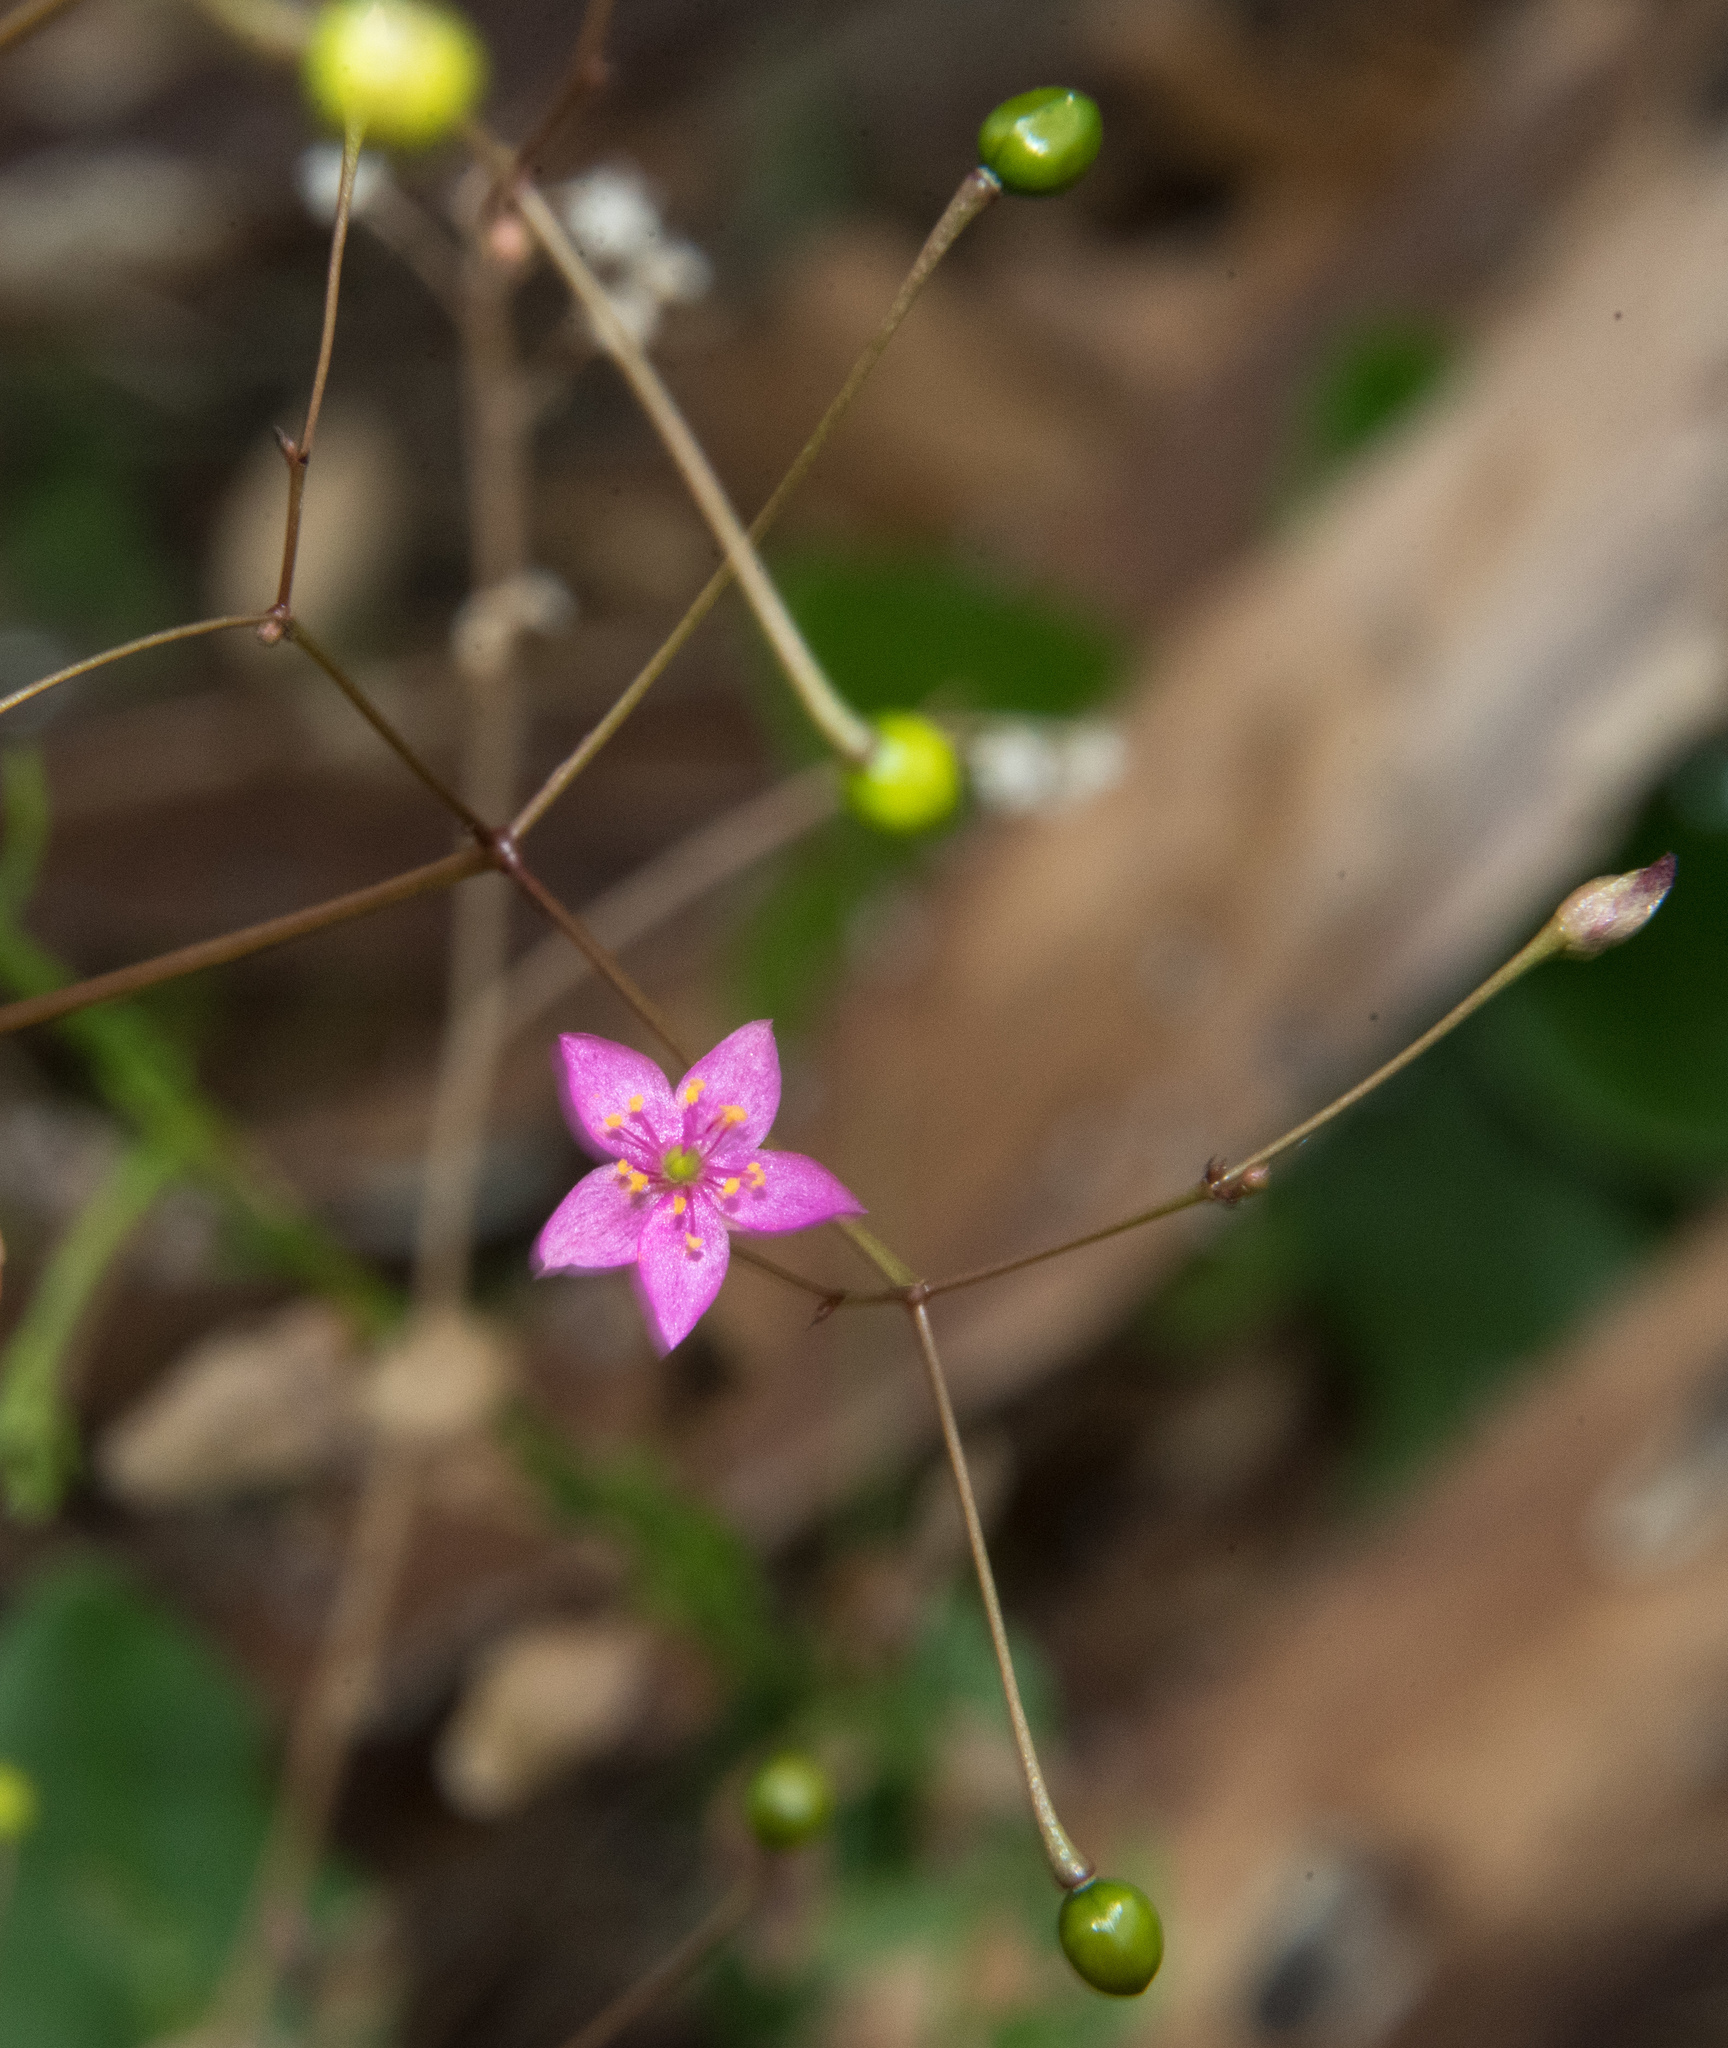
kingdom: Plantae
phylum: Tracheophyta
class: Magnoliopsida
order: Caryophyllales
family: Talinaceae
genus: Talinum
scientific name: Talinum paniculatum
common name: Jewels of opar
